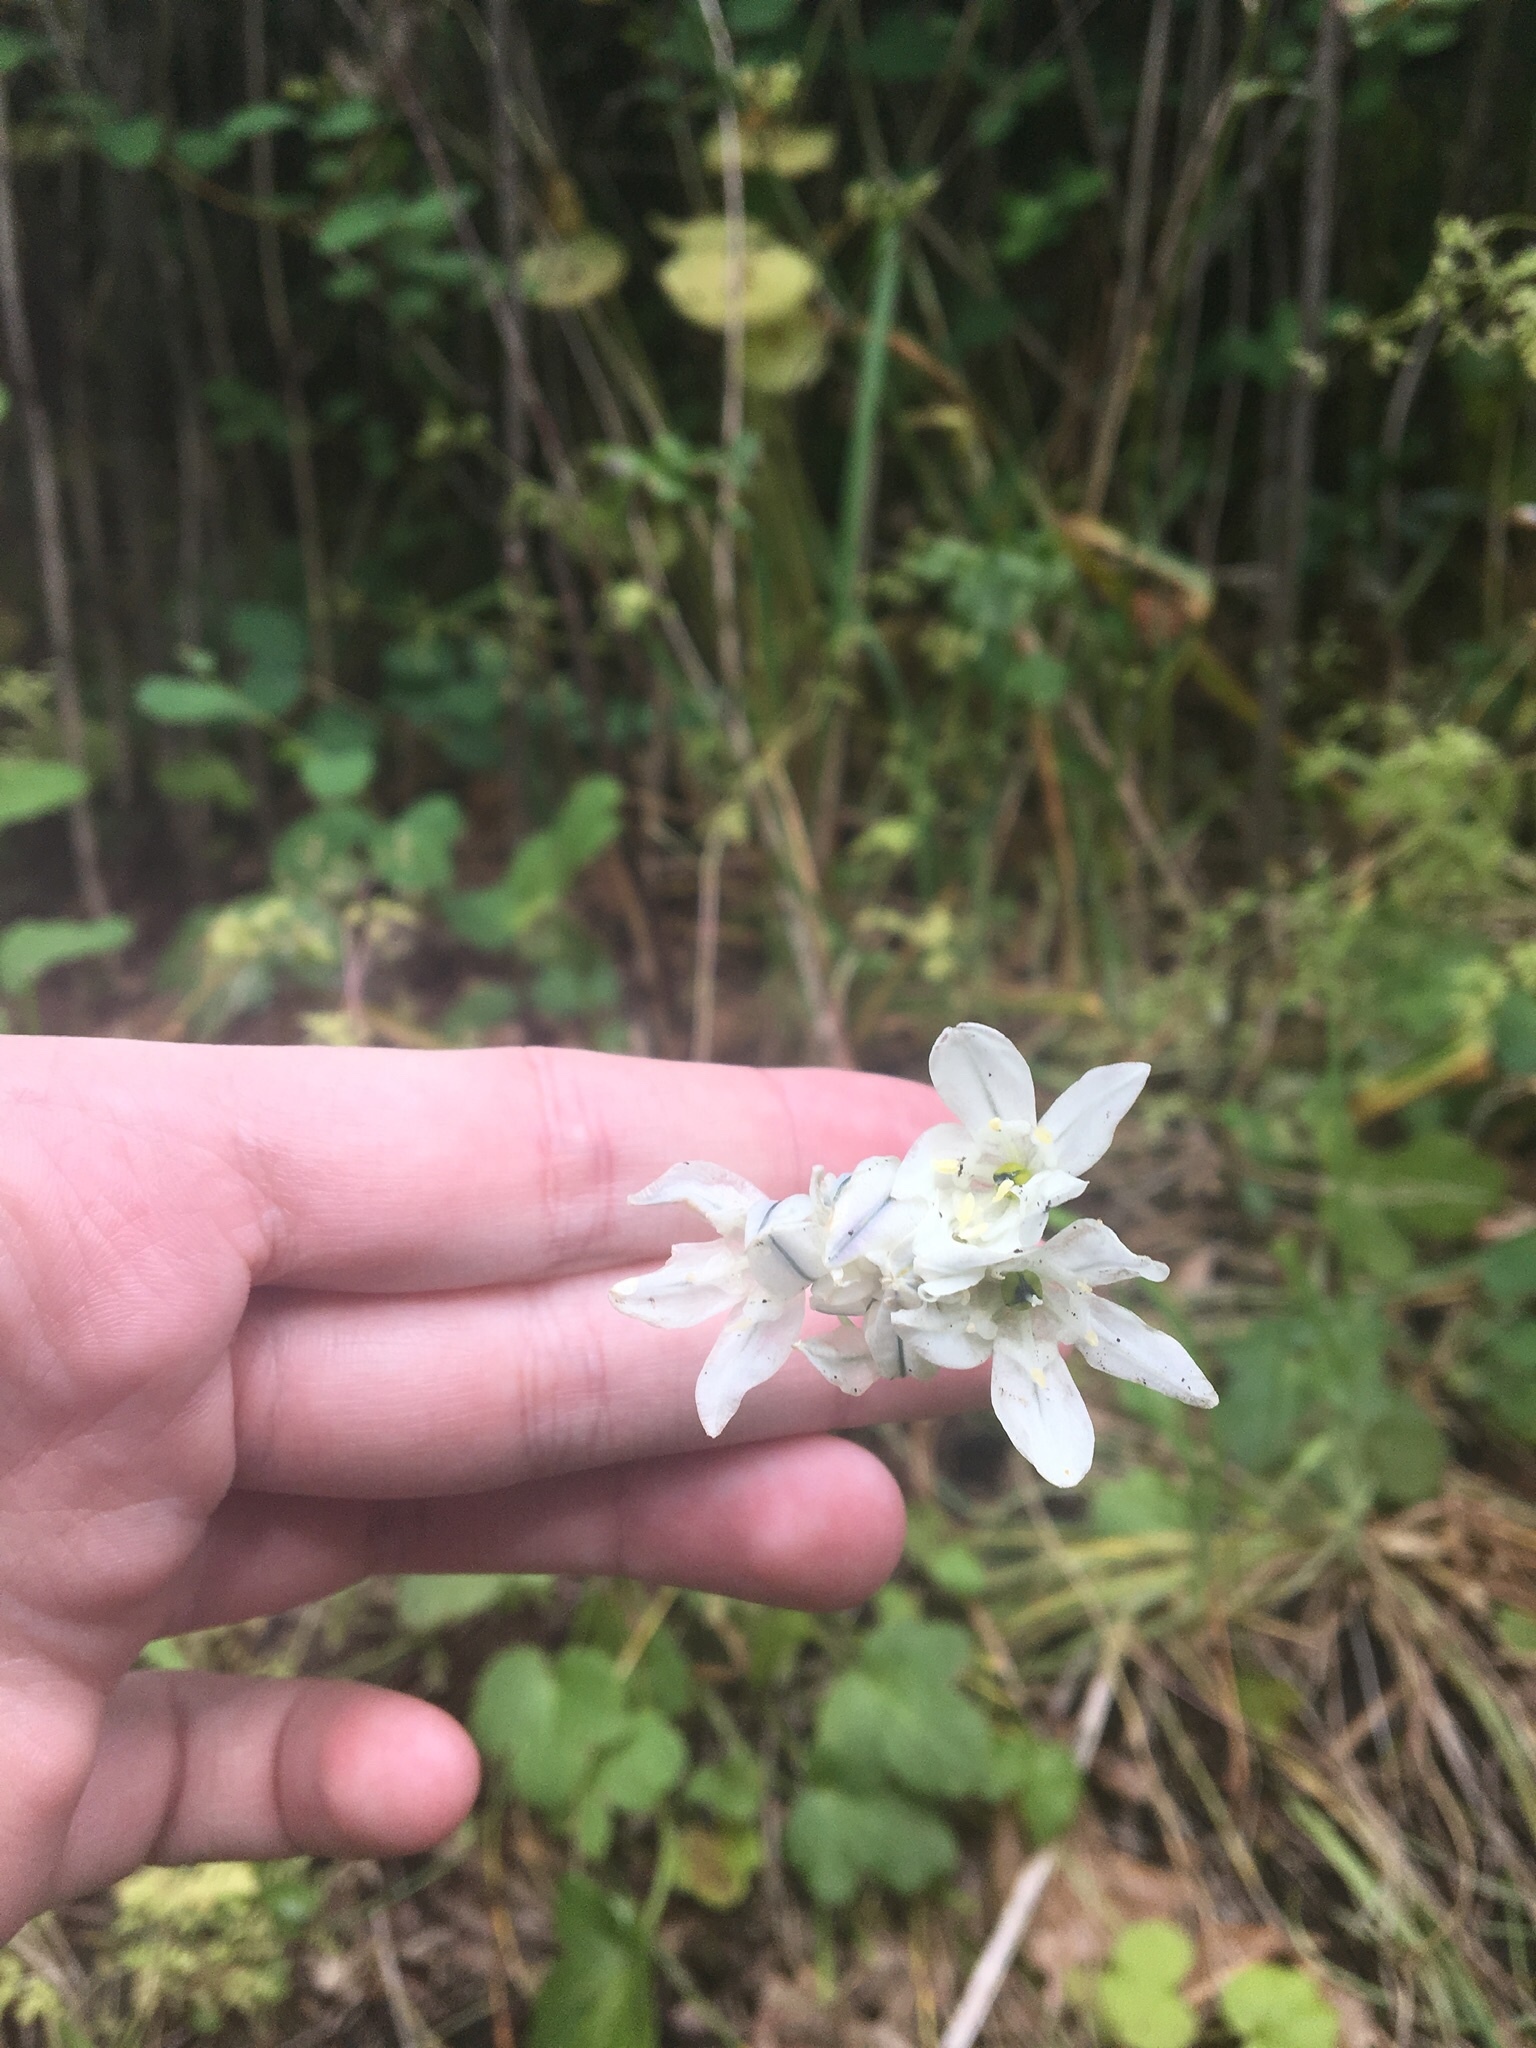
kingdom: Plantae
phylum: Tracheophyta
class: Liliopsida
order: Asparagales
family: Asparagaceae
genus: Triteleia
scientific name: Triteleia hyacinthina
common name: White brodiaea
